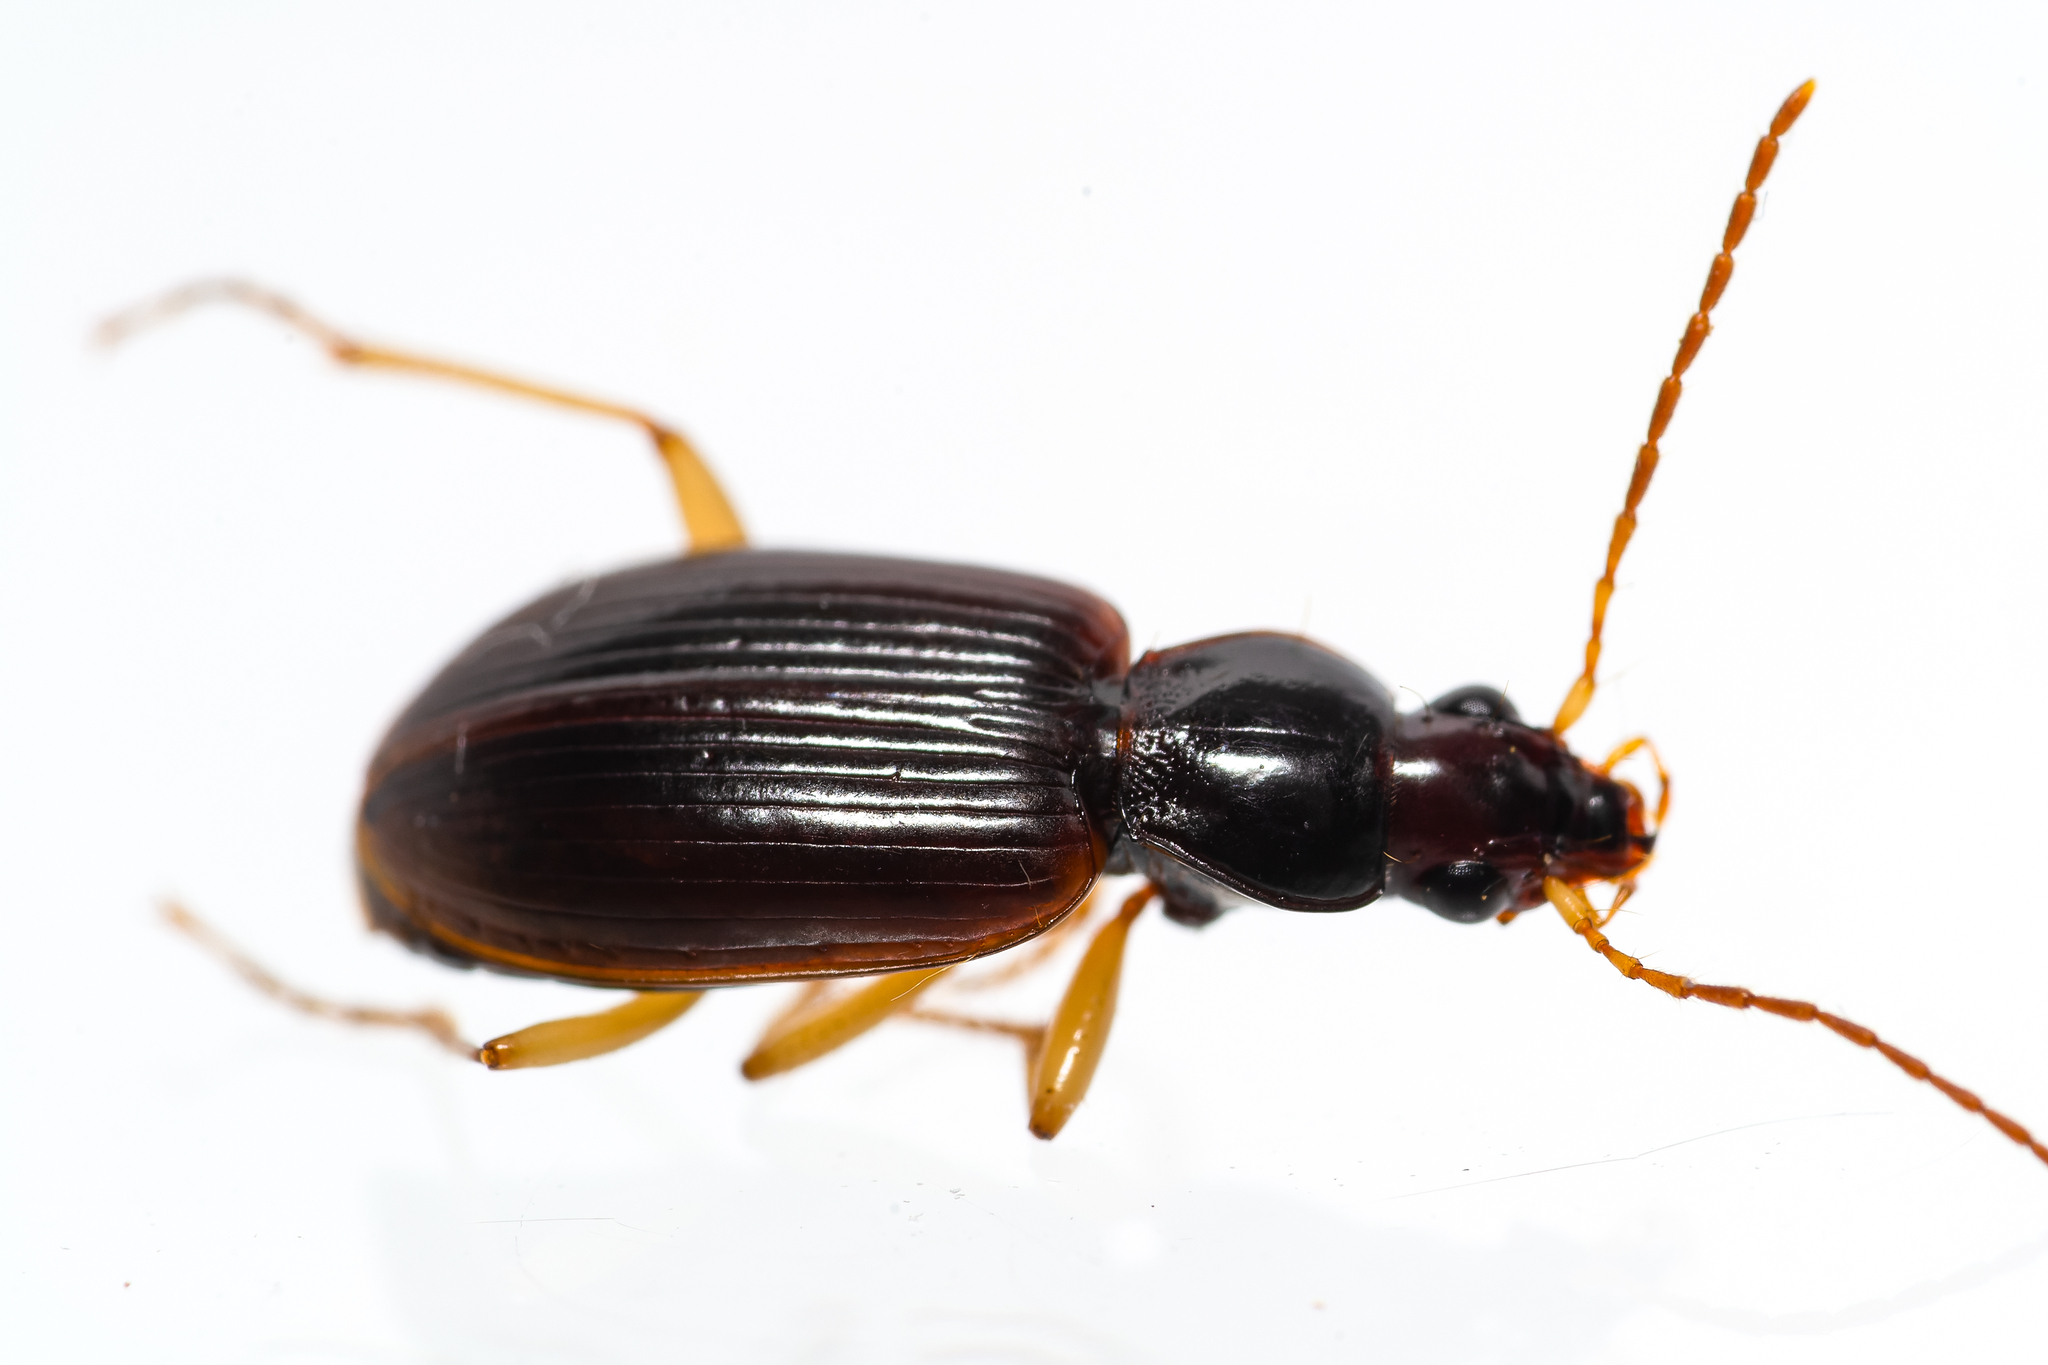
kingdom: Animalia
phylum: Arthropoda
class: Insecta
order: Coleoptera
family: Carabidae
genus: Paranchus
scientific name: Paranchus albipes
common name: White-legged harp ground beetle
